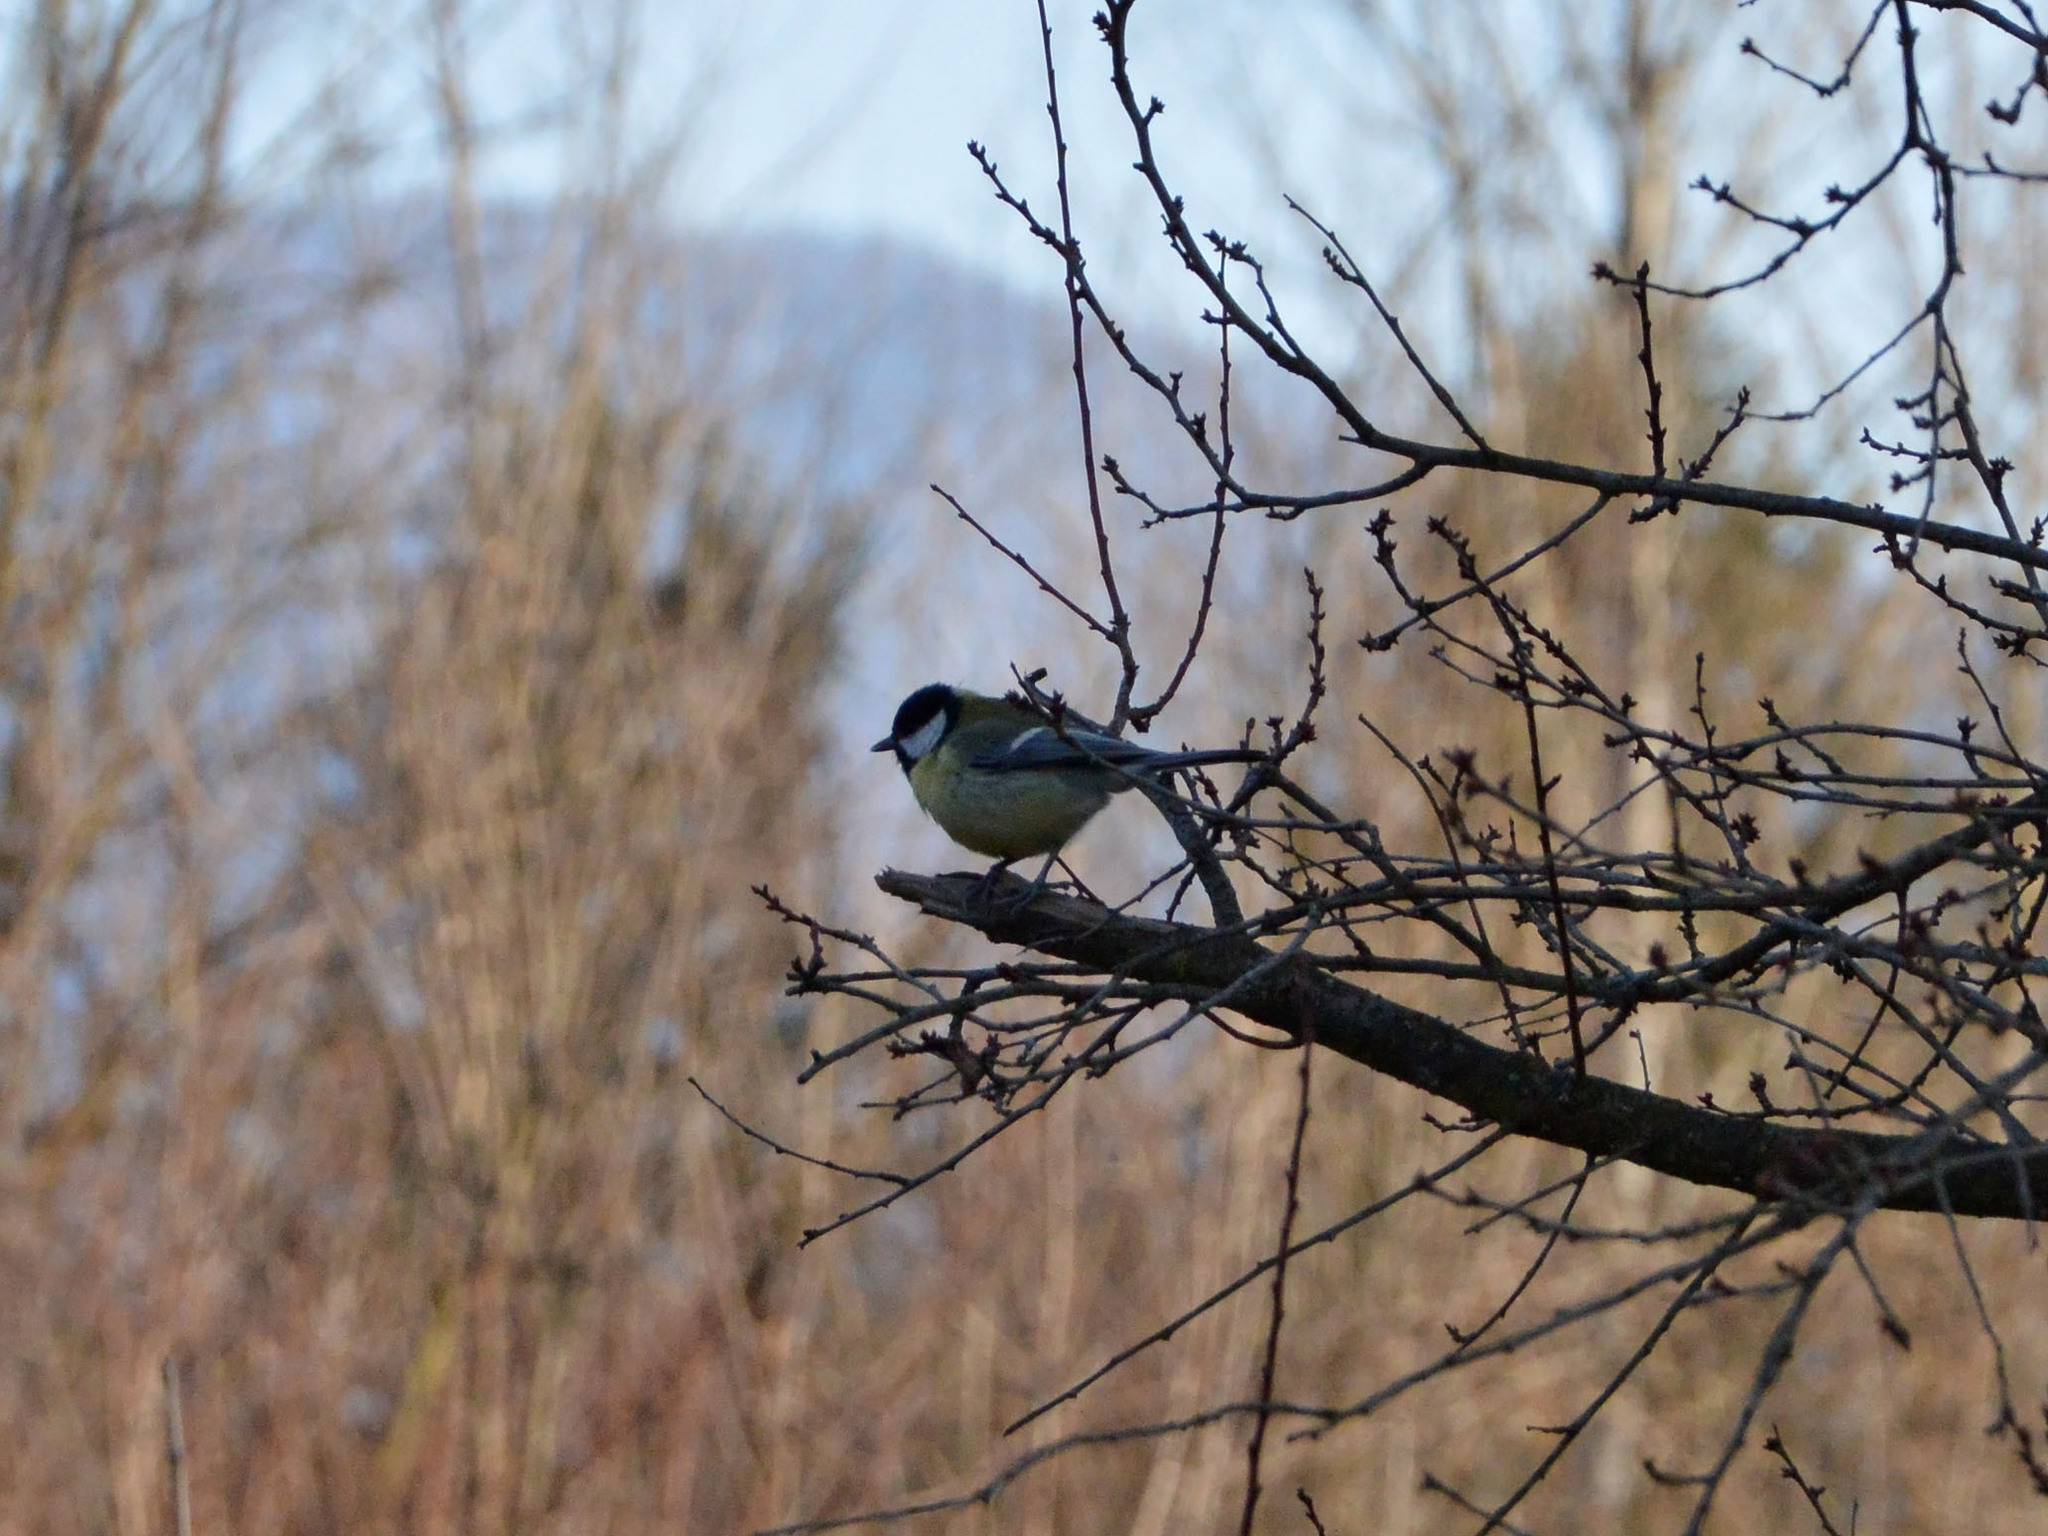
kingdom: Animalia
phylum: Chordata
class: Aves
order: Passeriformes
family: Paridae
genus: Parus
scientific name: Parus major
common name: Great tit
